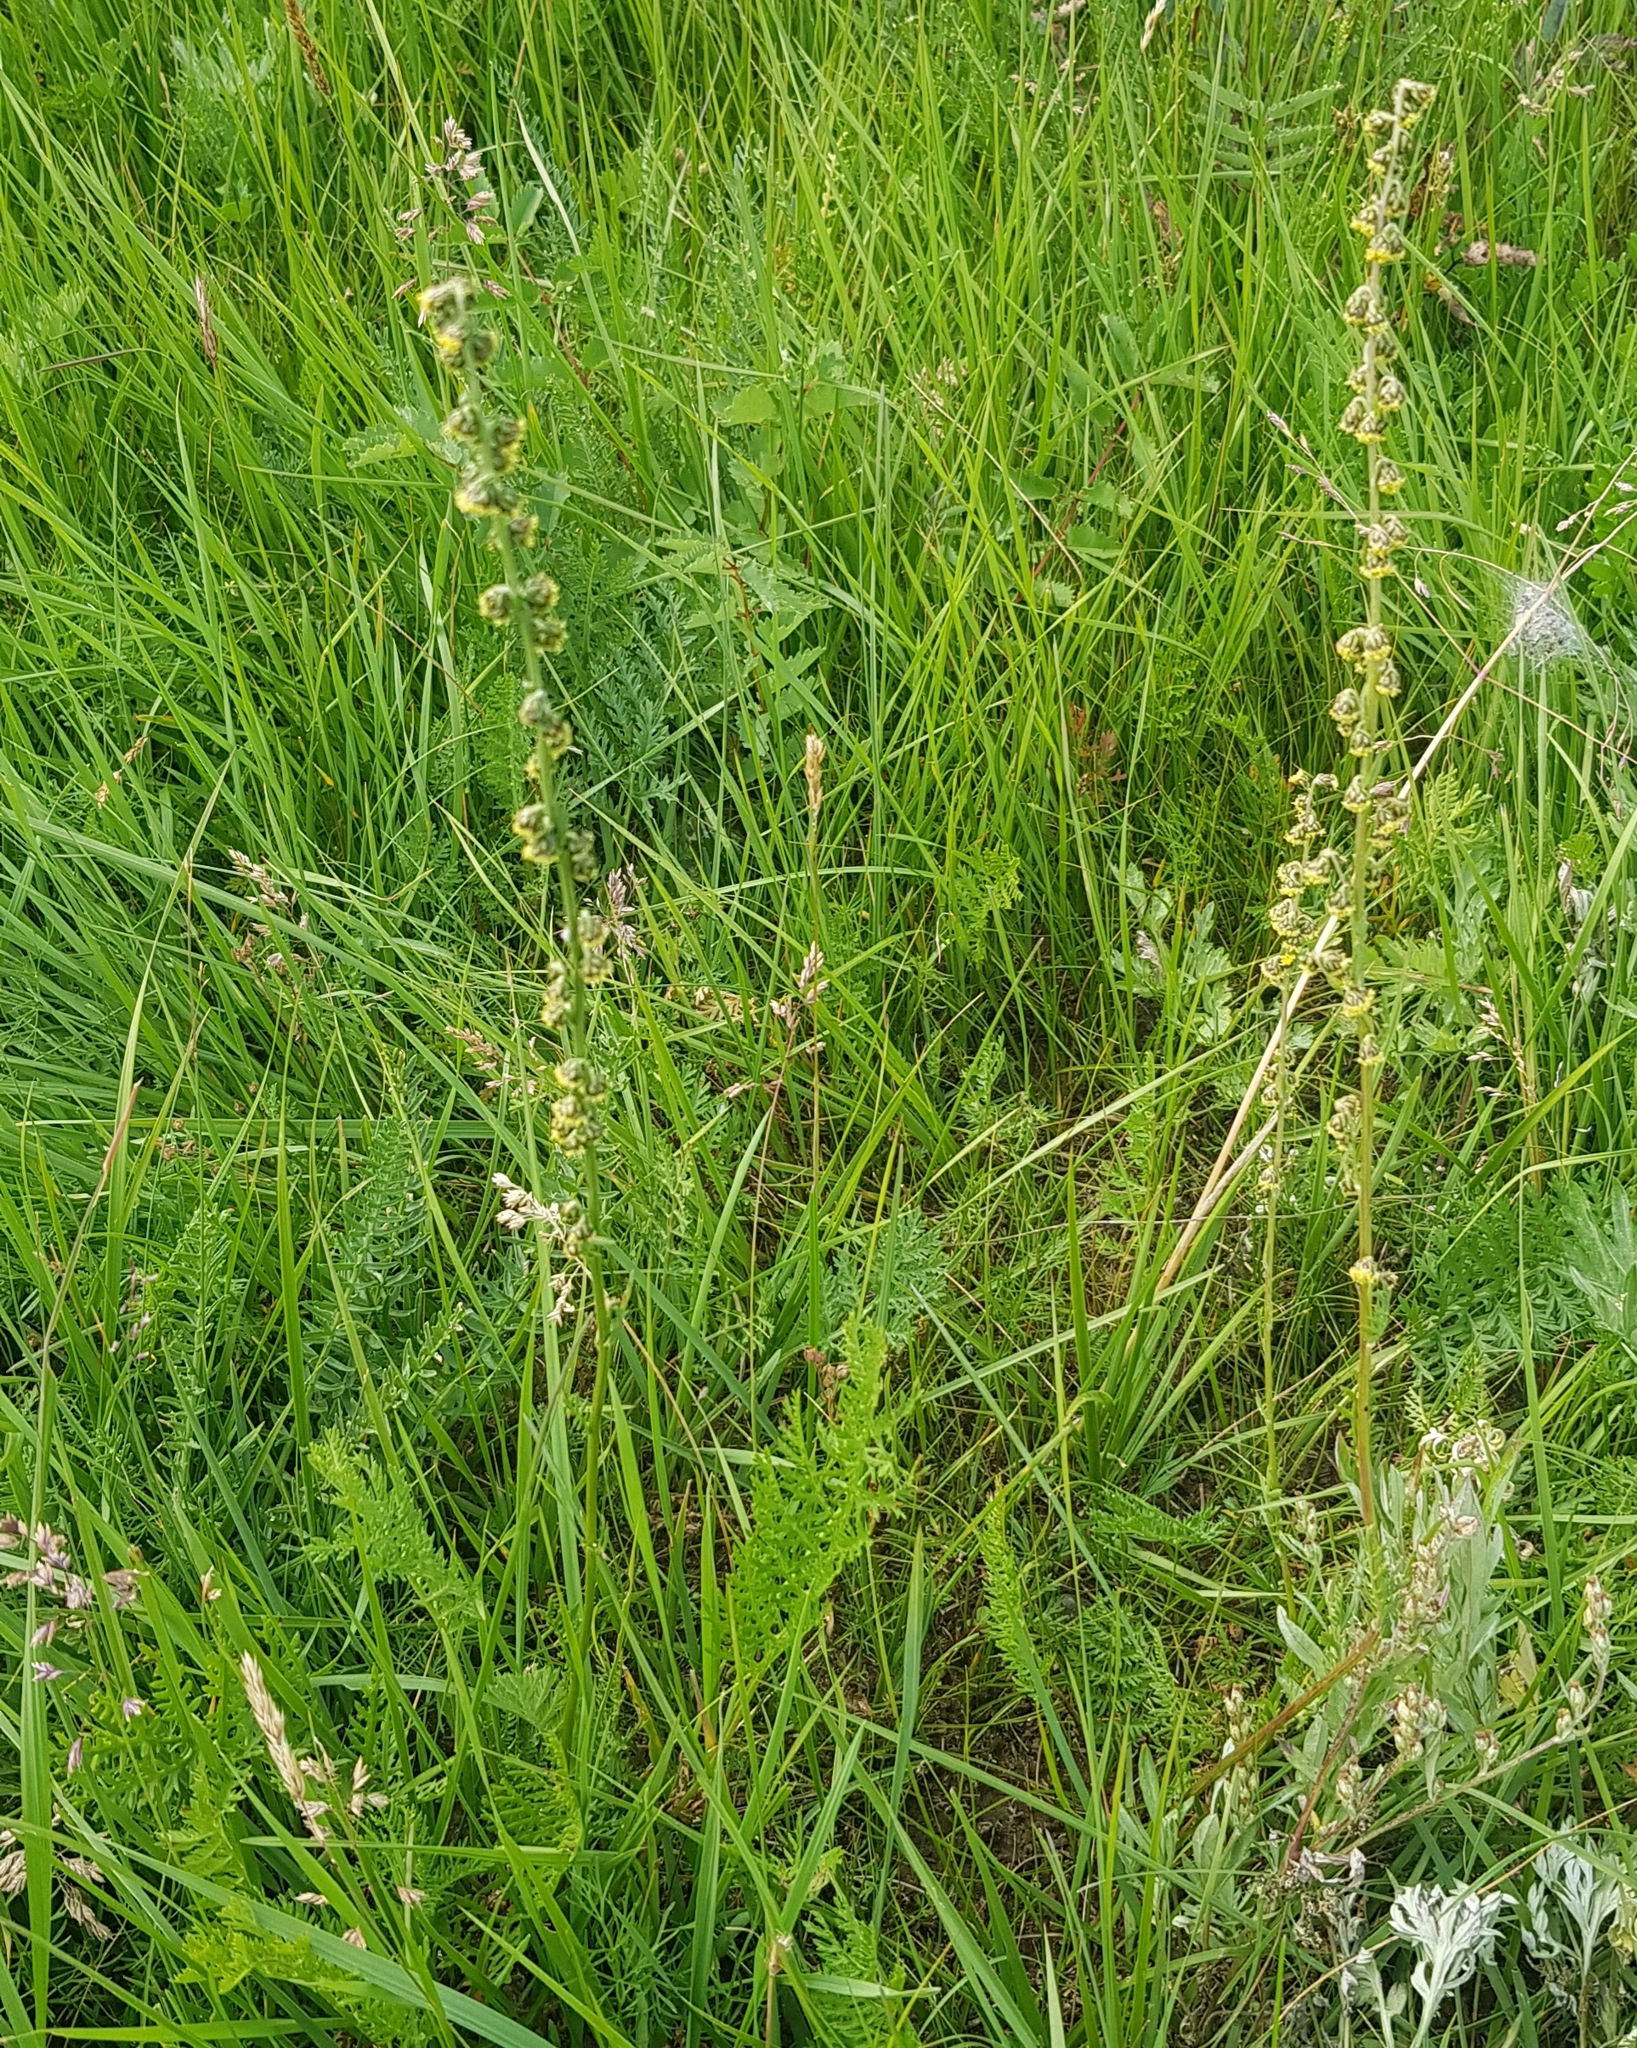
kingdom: Plantae
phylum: Tracheophyta
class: Magnoliopsida
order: Asterales
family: Asteraceae
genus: Artemisia
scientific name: Artemisia laciniata
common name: Siberian wormwood
